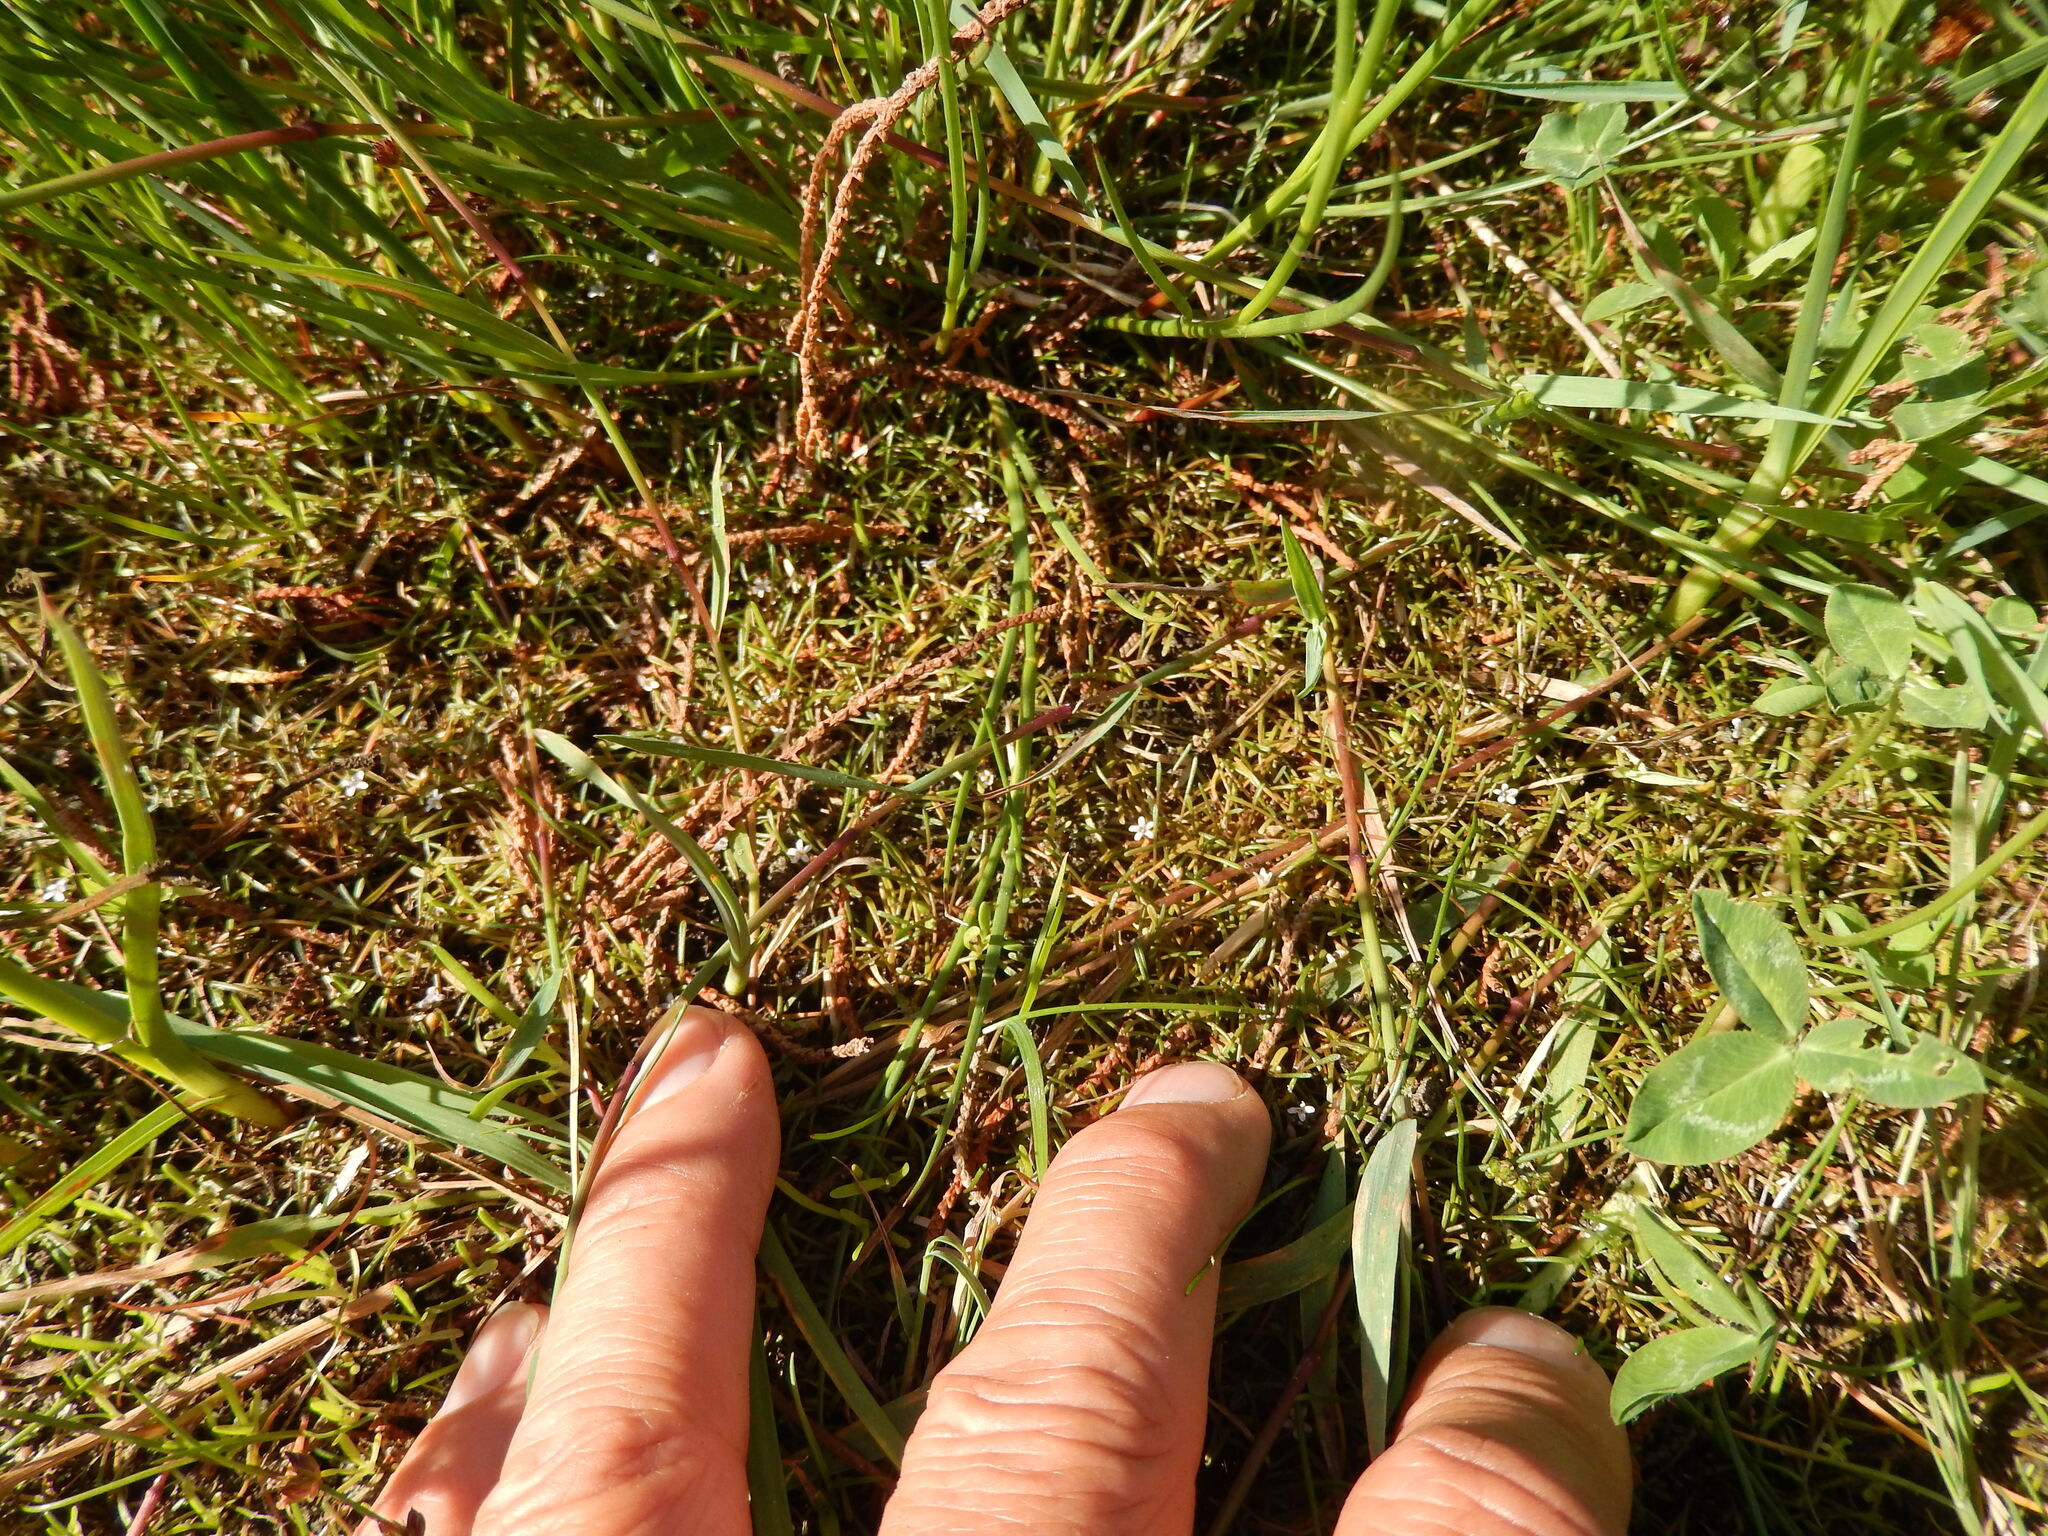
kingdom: Plantae
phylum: Tracheophyta
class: Magnoliopsida
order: Lamiales
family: Scrophulariaceae
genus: Limosella
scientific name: Limosella australis
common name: Welsh mudwort
